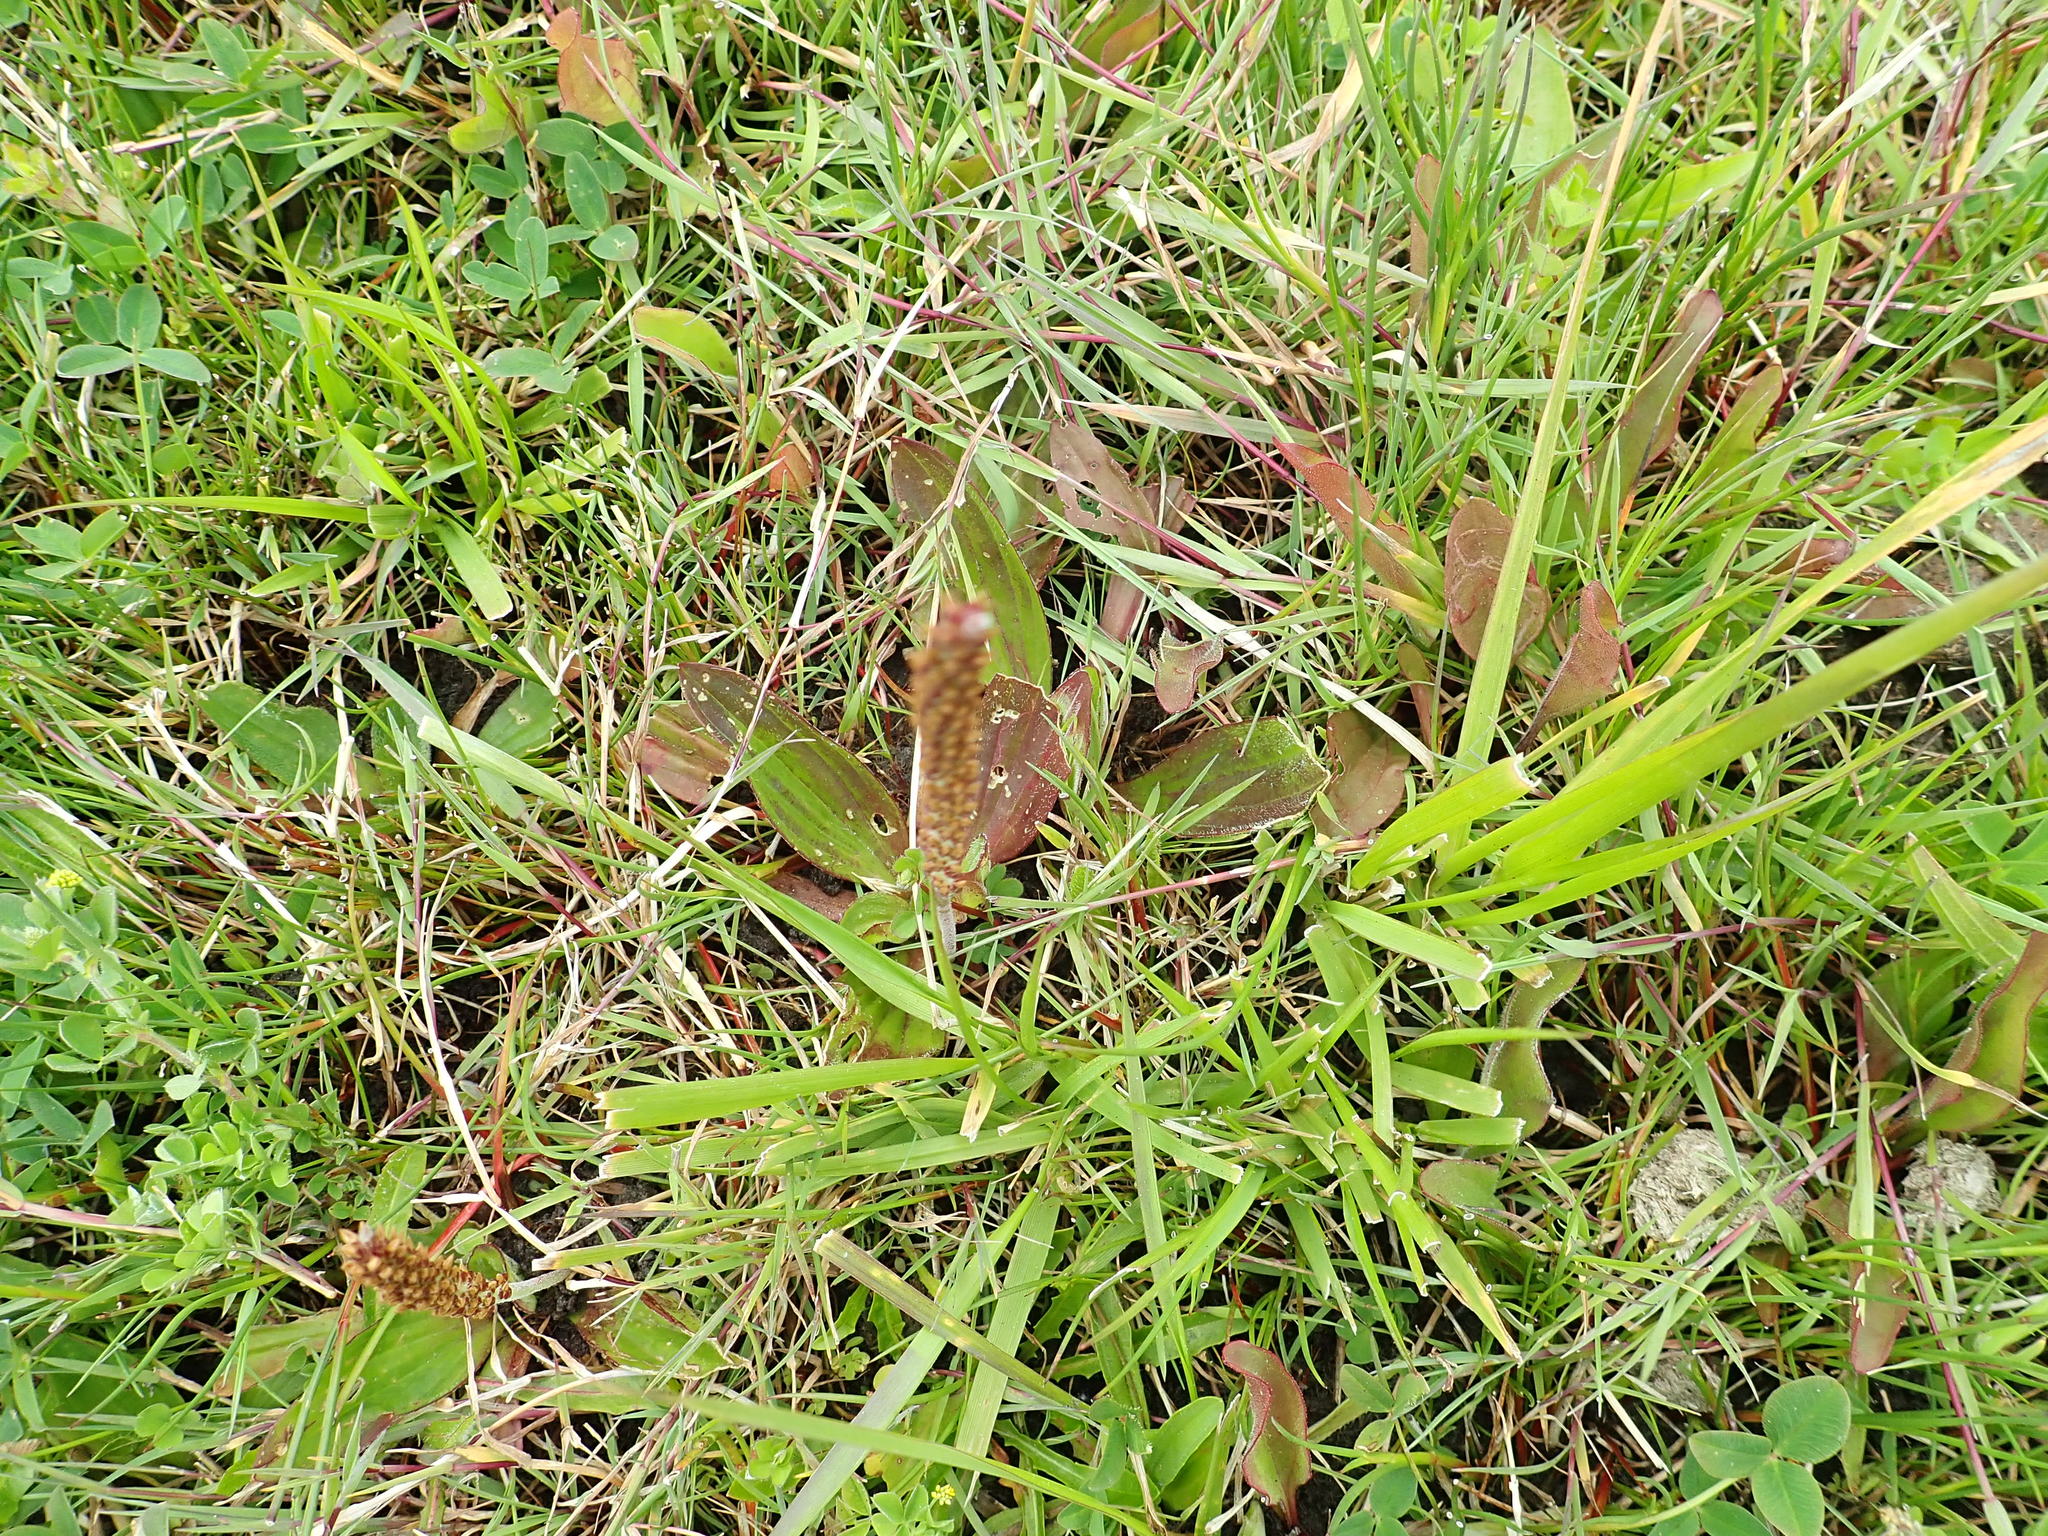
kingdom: Plantae
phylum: Tracheophyta
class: Magnoliopsida
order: Lamiales
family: Plantaginaceae
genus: Plantago
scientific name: Plantago australis
